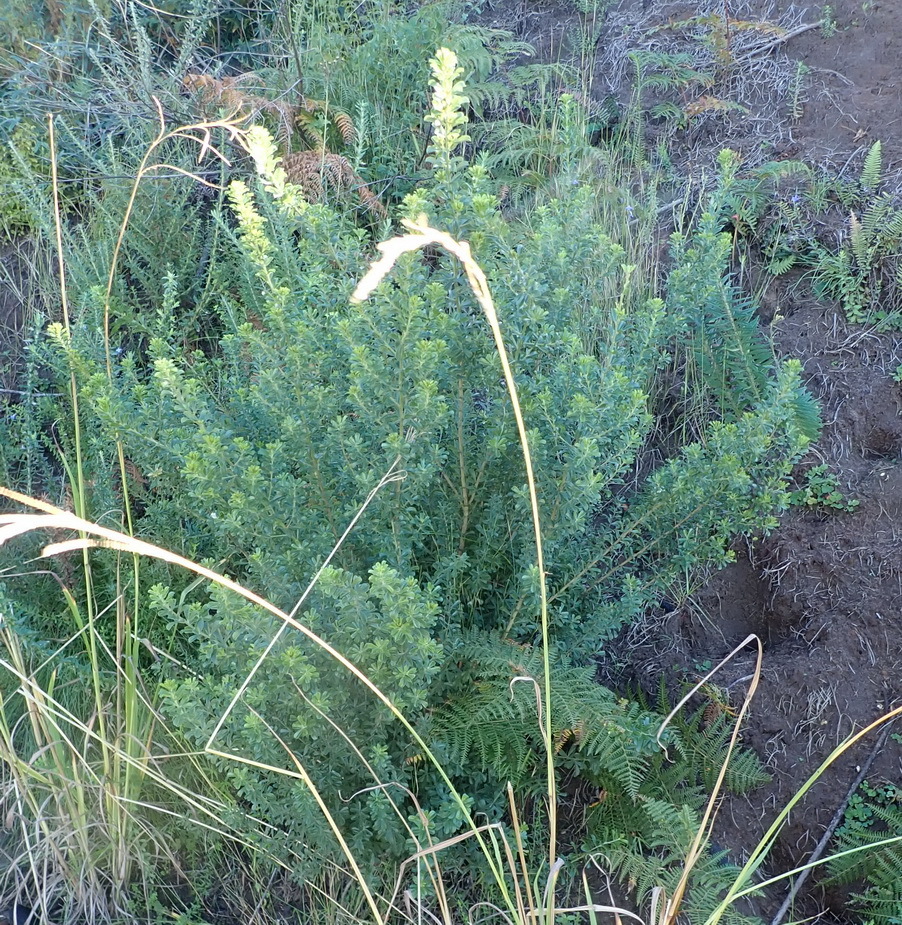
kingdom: Plantae
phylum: Tracheophyta
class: Magnoliopsida
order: Fabales
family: Fabaceae
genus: Psoralea
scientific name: Psoralea prodiens
